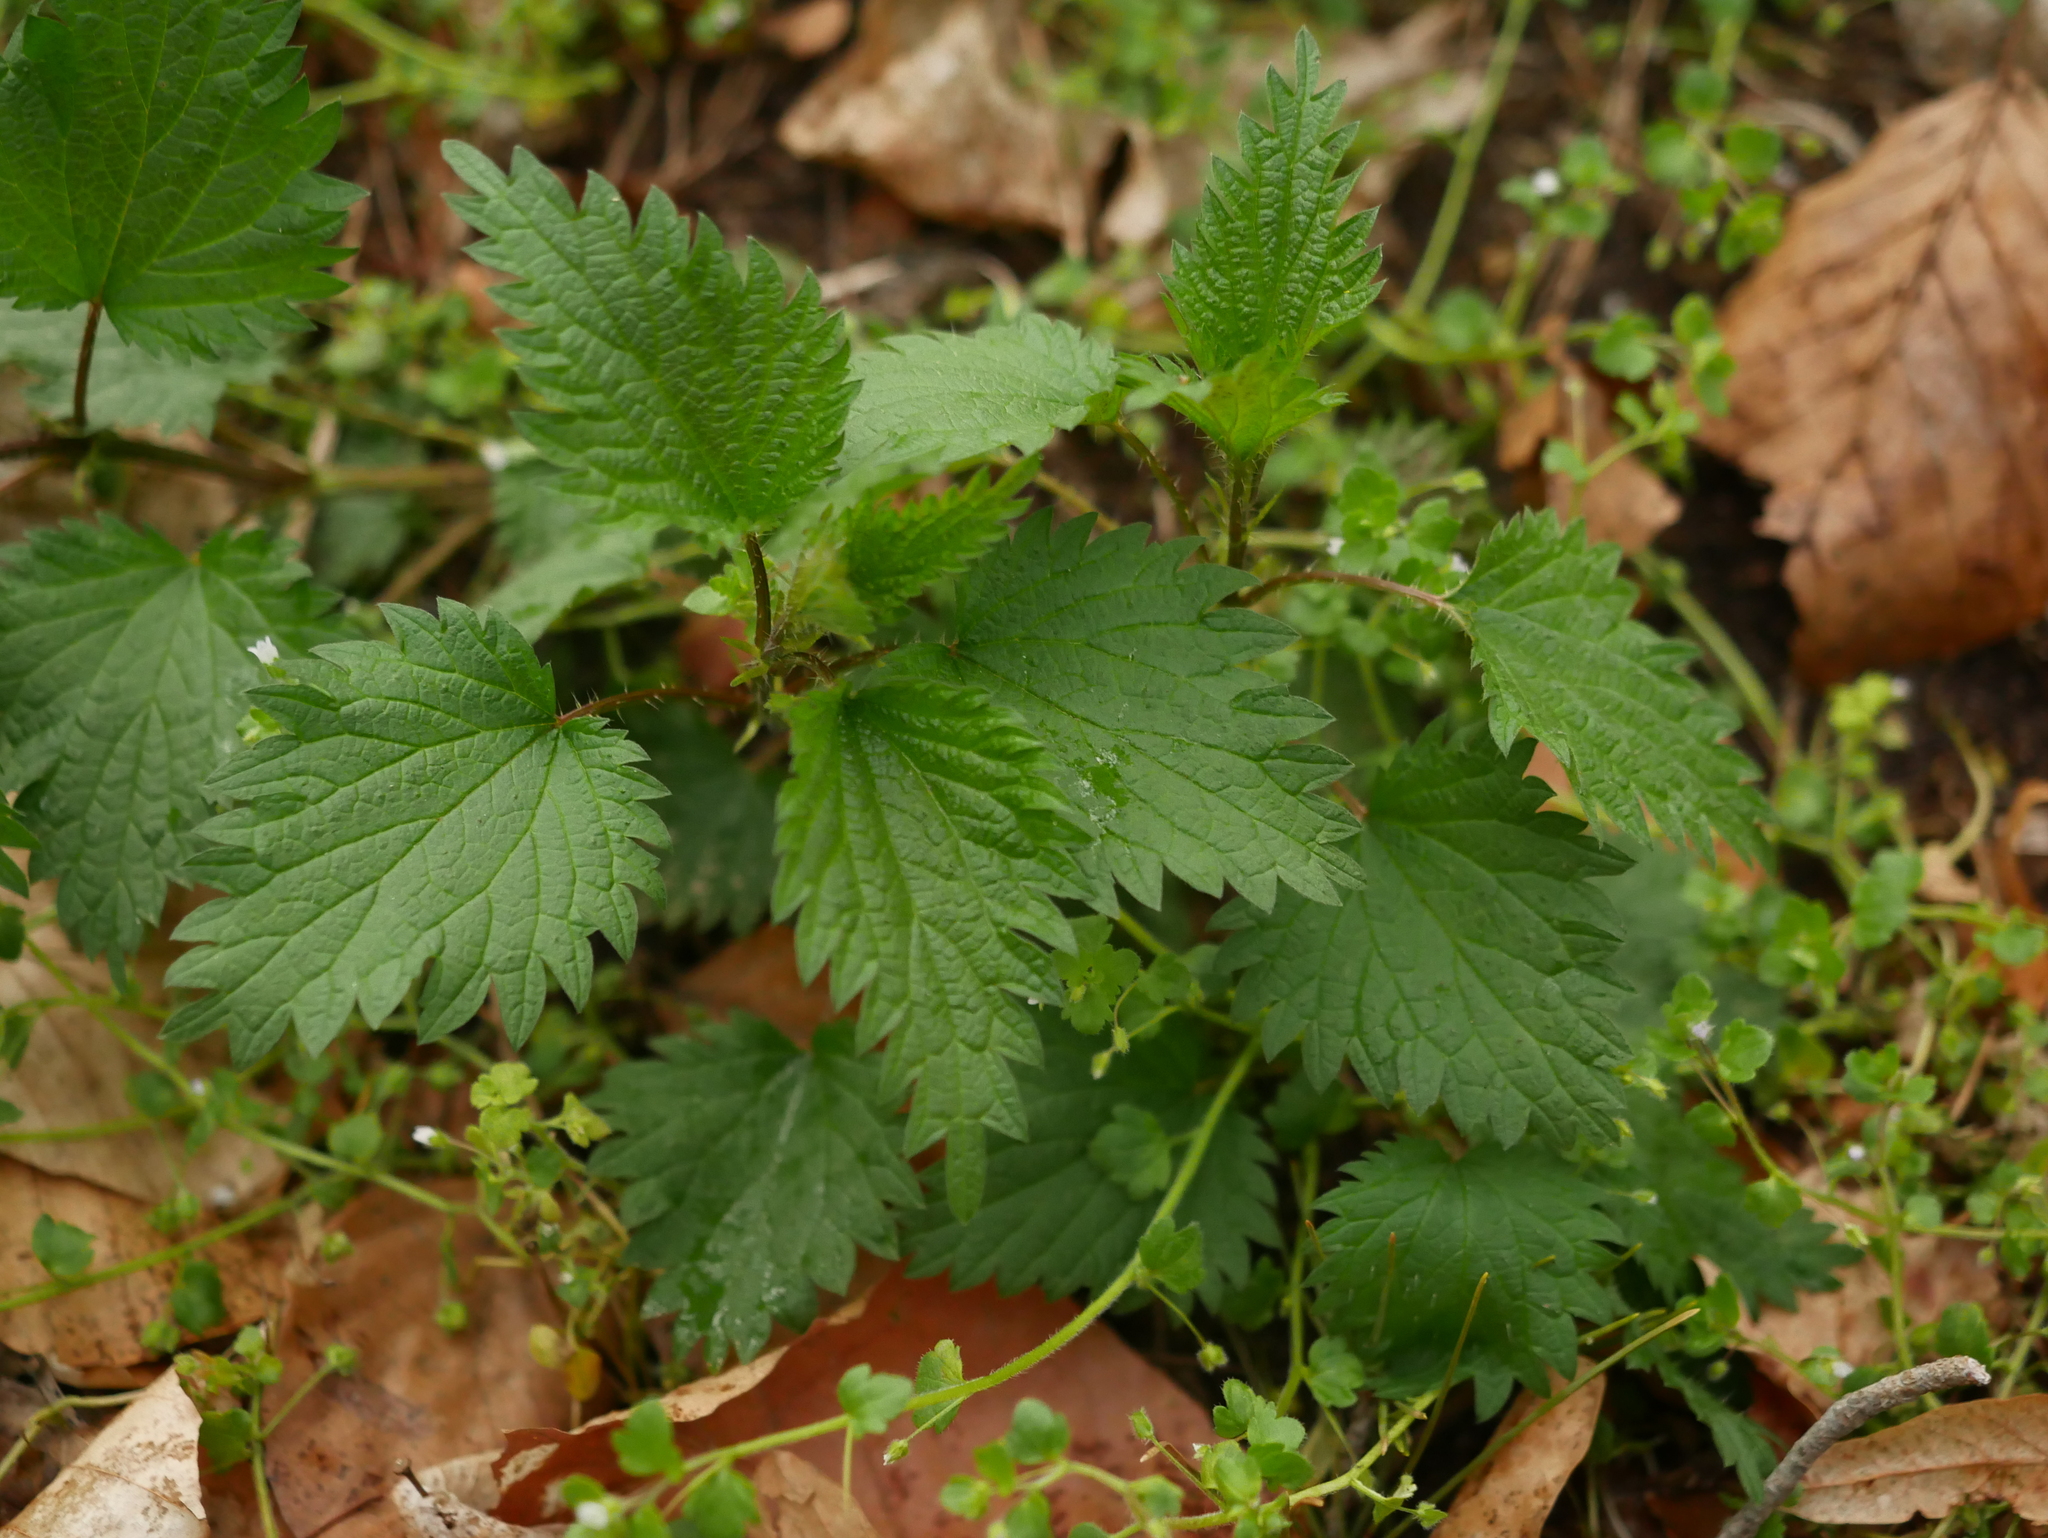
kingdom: Plantae
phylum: Tracheophyta
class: Magnoliopsida
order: Rosales
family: Urticaceae
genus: Urtica
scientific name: Urtica dioica
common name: Common nettle
